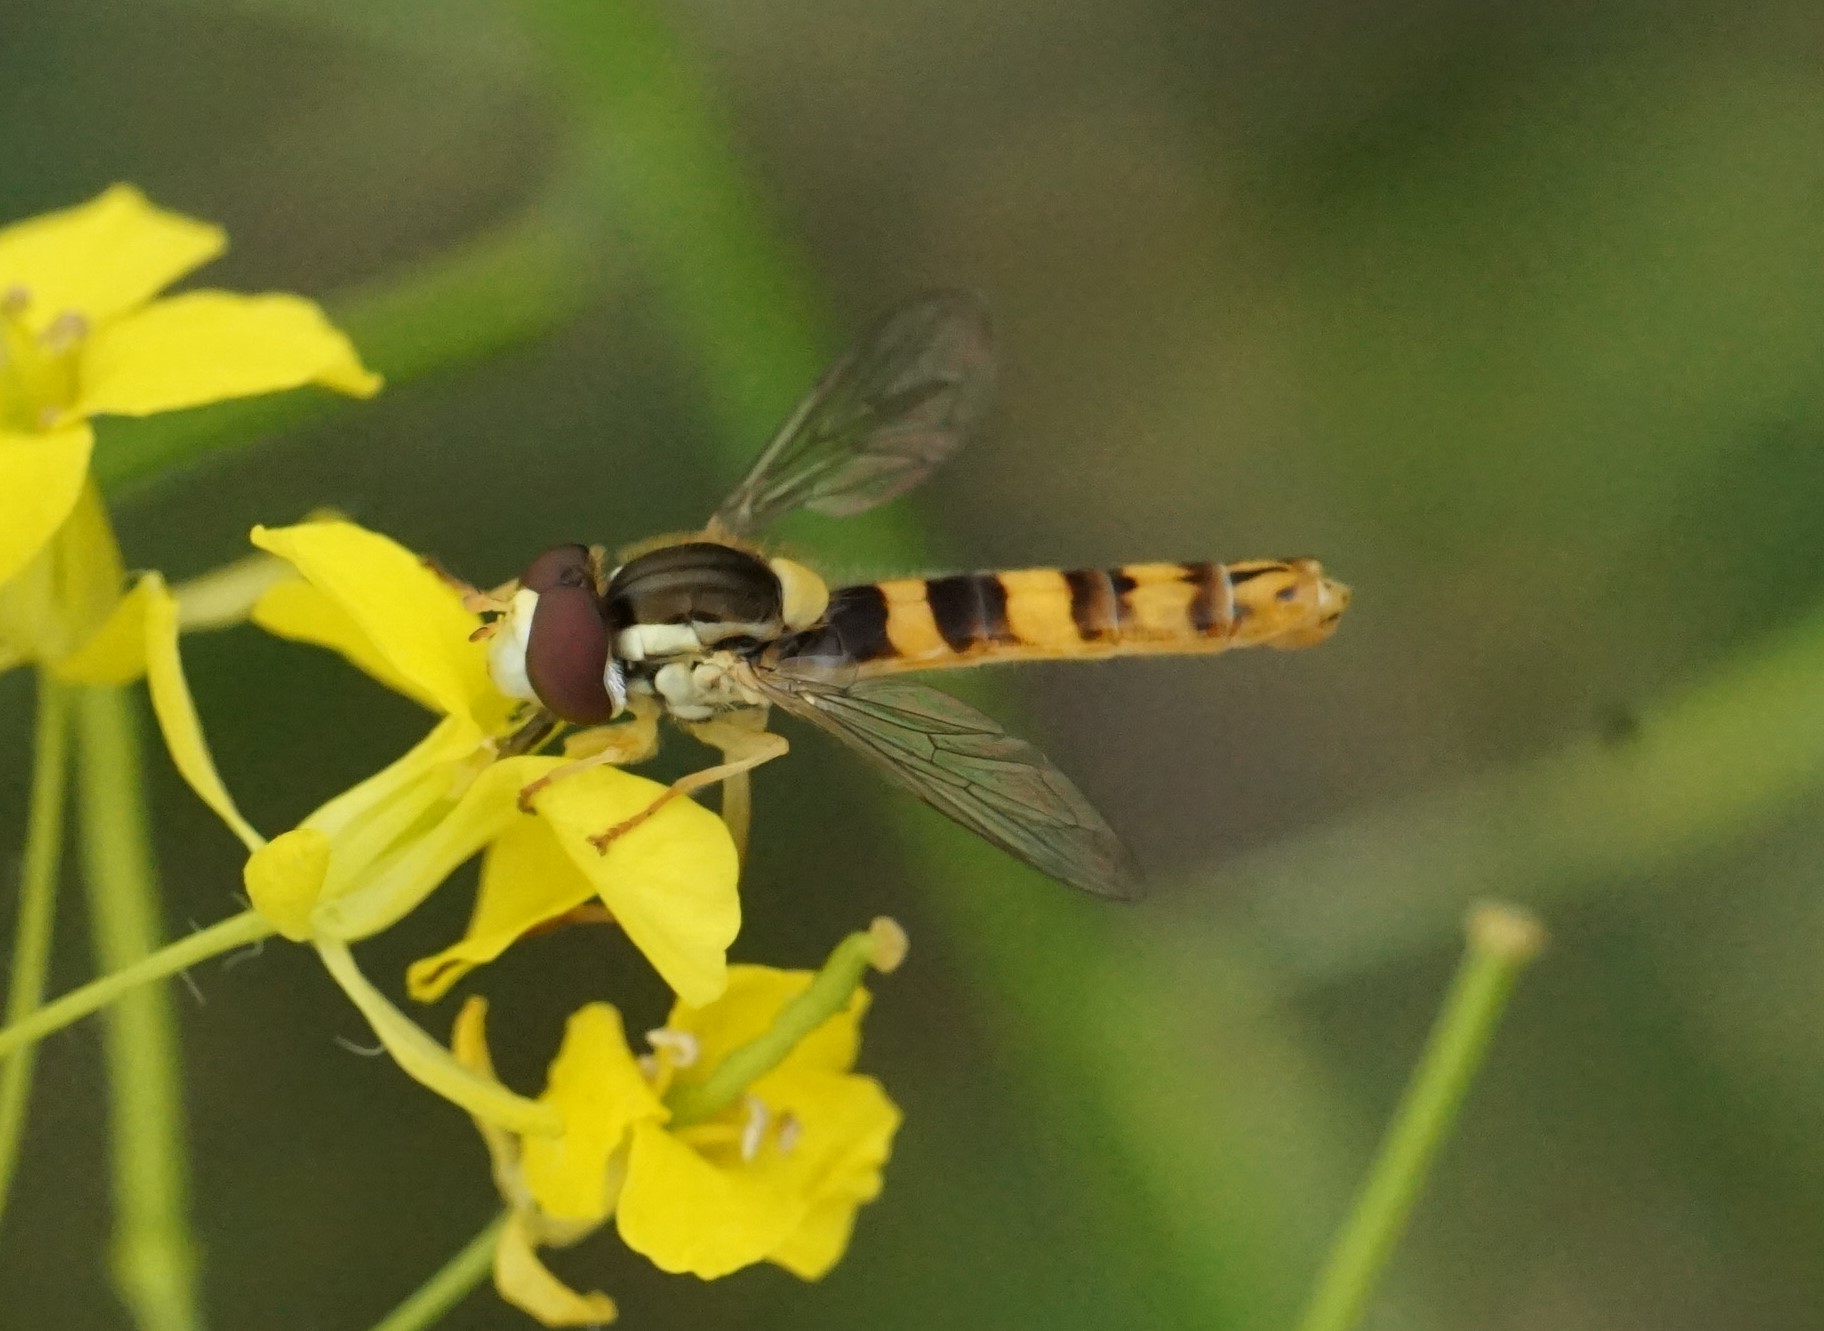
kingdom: Animalia
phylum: Arthropoda
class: Insecta
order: Diptera
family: Syrphidae
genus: Sphaerophoria
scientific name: Sphaerophoria scripta
